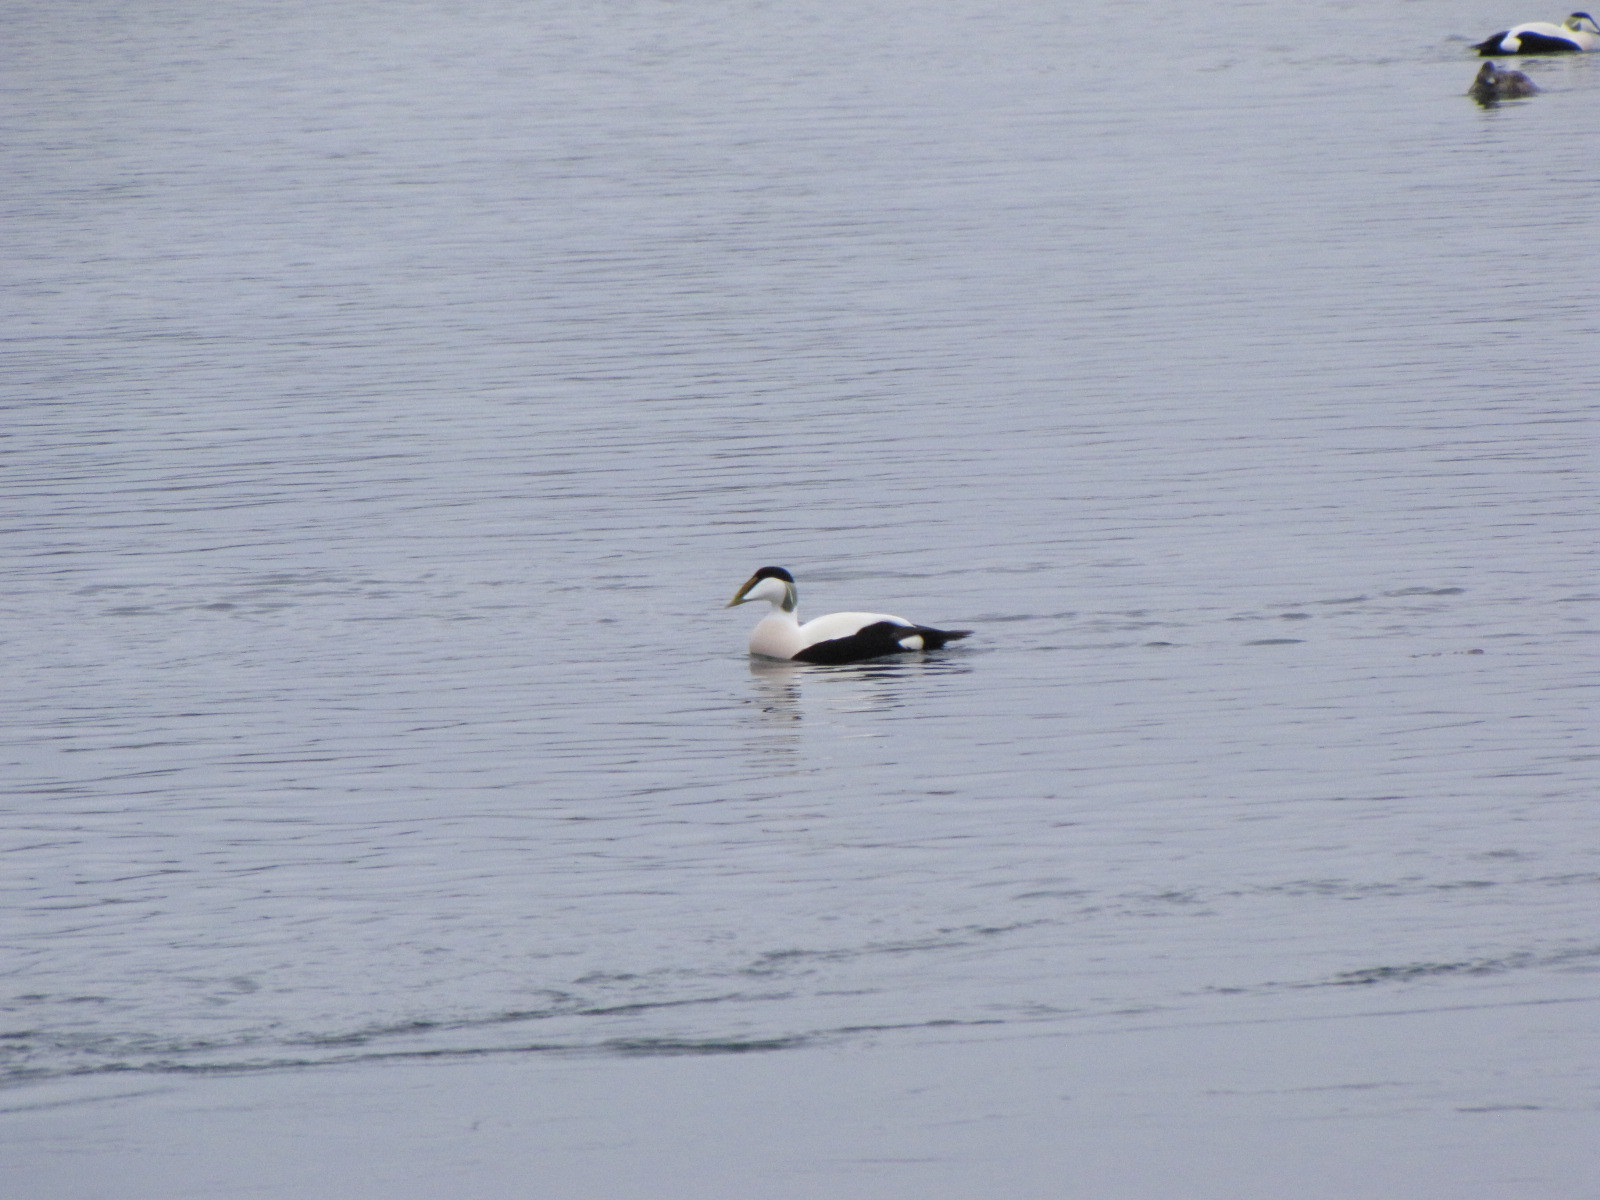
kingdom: Animalia
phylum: Chordata
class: Aves
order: Anseriformes
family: Anatidae
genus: Somateria
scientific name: Somateria mollissima
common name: Common eider
